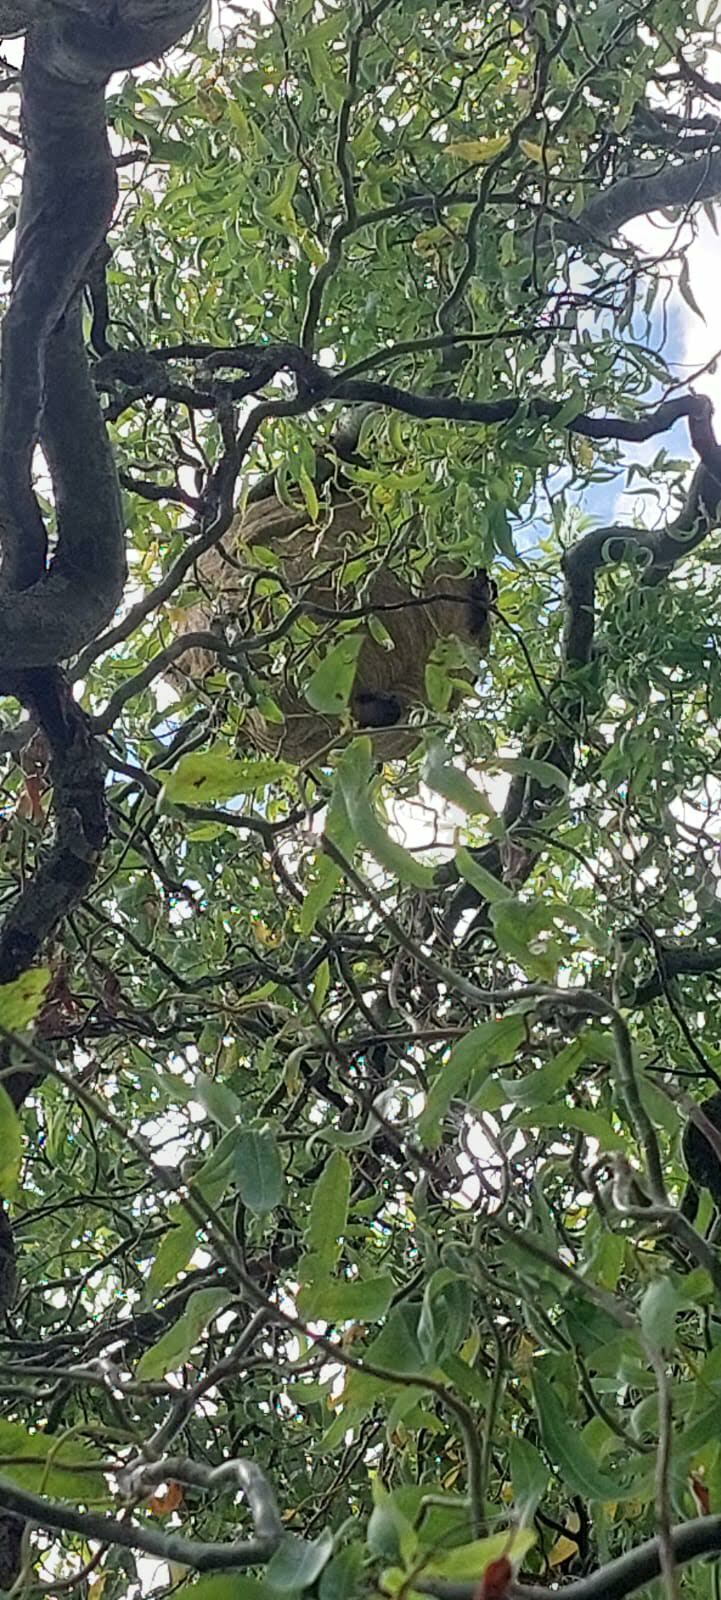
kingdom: Animalia
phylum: Arthropoda
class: Insecta
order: Hymenoptera
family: Vespidae
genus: Vespa
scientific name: Vespa velutina
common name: Asian hornet
